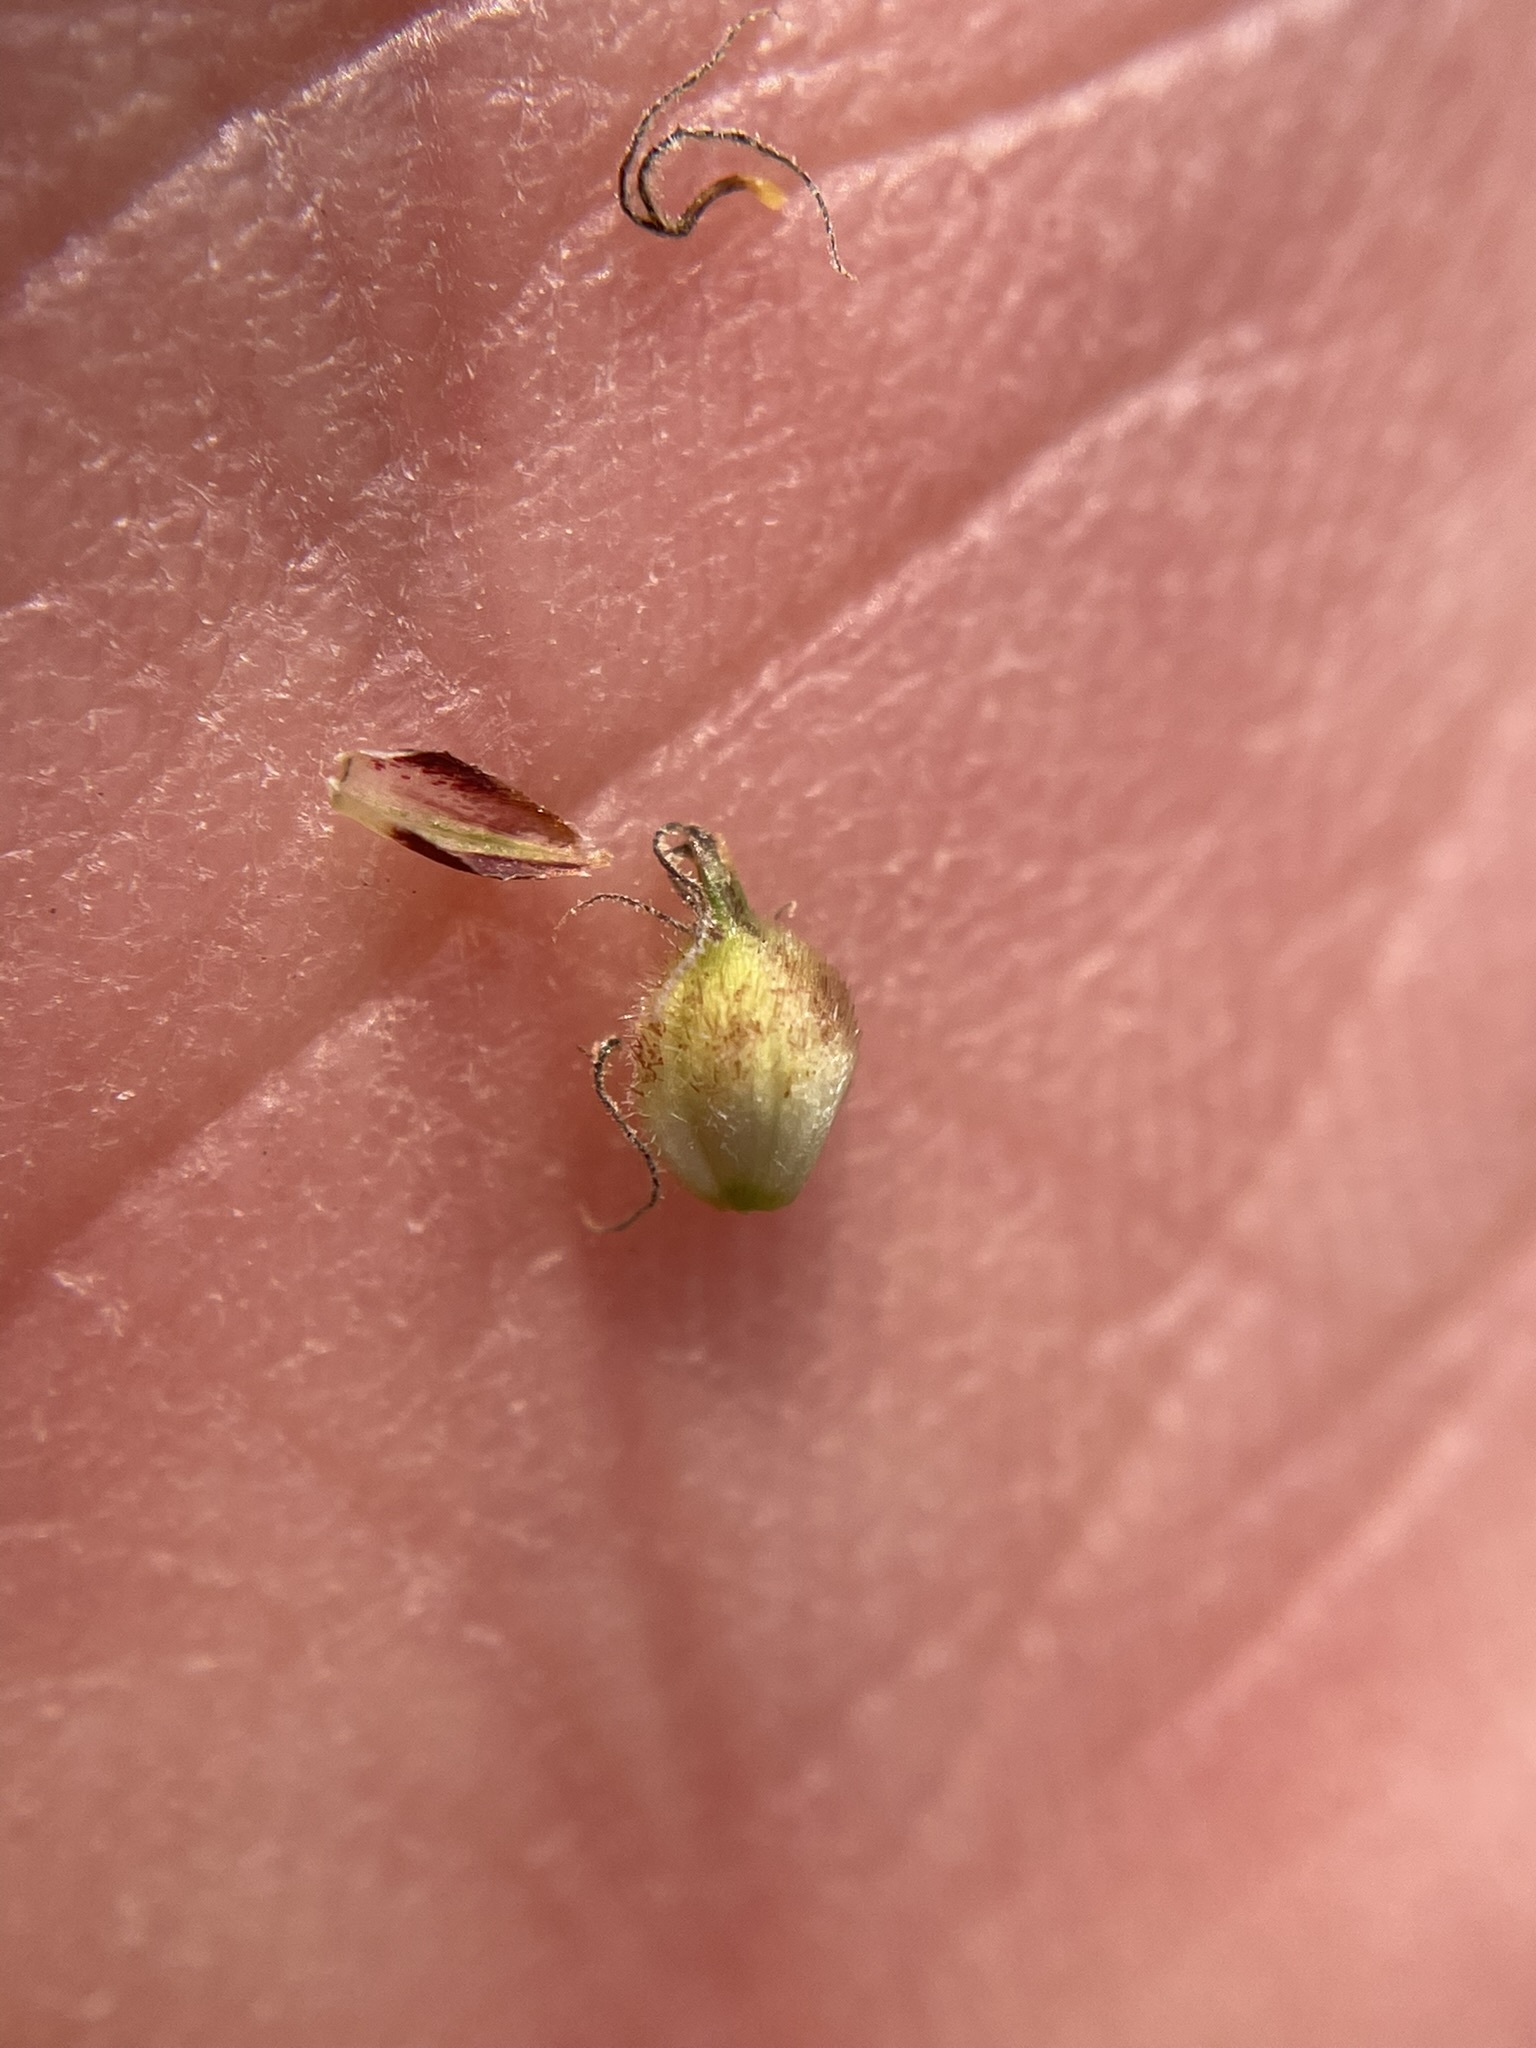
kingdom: Plantae
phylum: Tracheophyta
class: Liliopsida
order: Poales
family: Cyperaceae
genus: Carex
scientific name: Carex lasiocarpa
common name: Slender sedge
